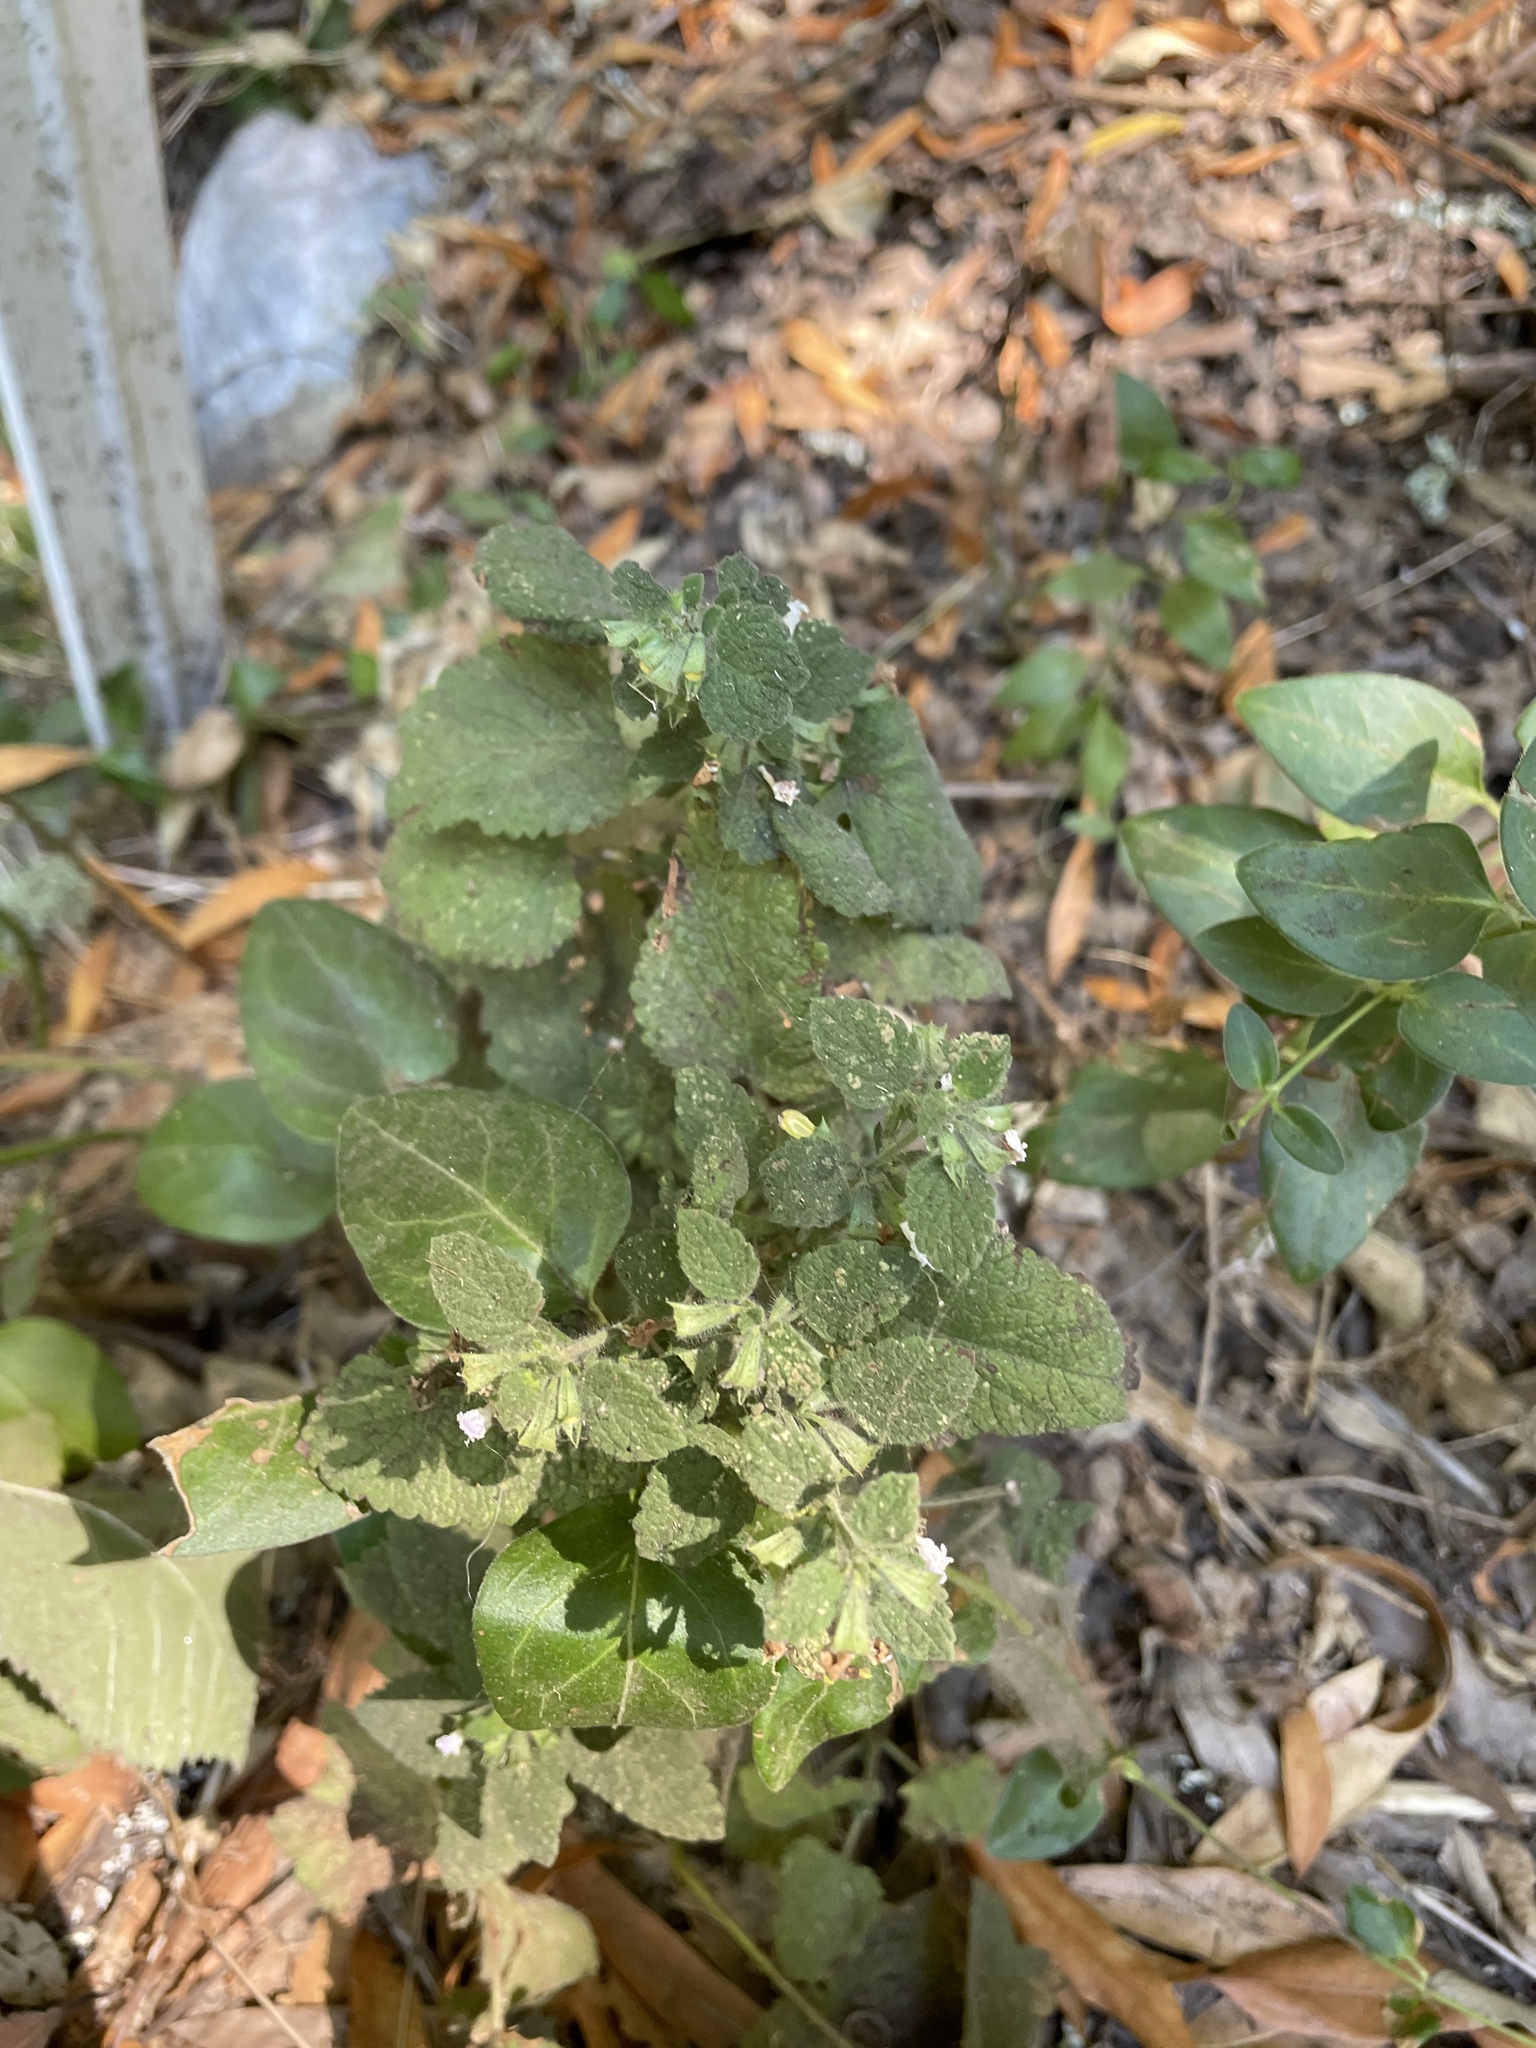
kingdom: Plantae
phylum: Tracheophyta
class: Magnoliopsida
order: Lamiales
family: Lamiaceae
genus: Melissa
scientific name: Melissa officinalis
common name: Balm
